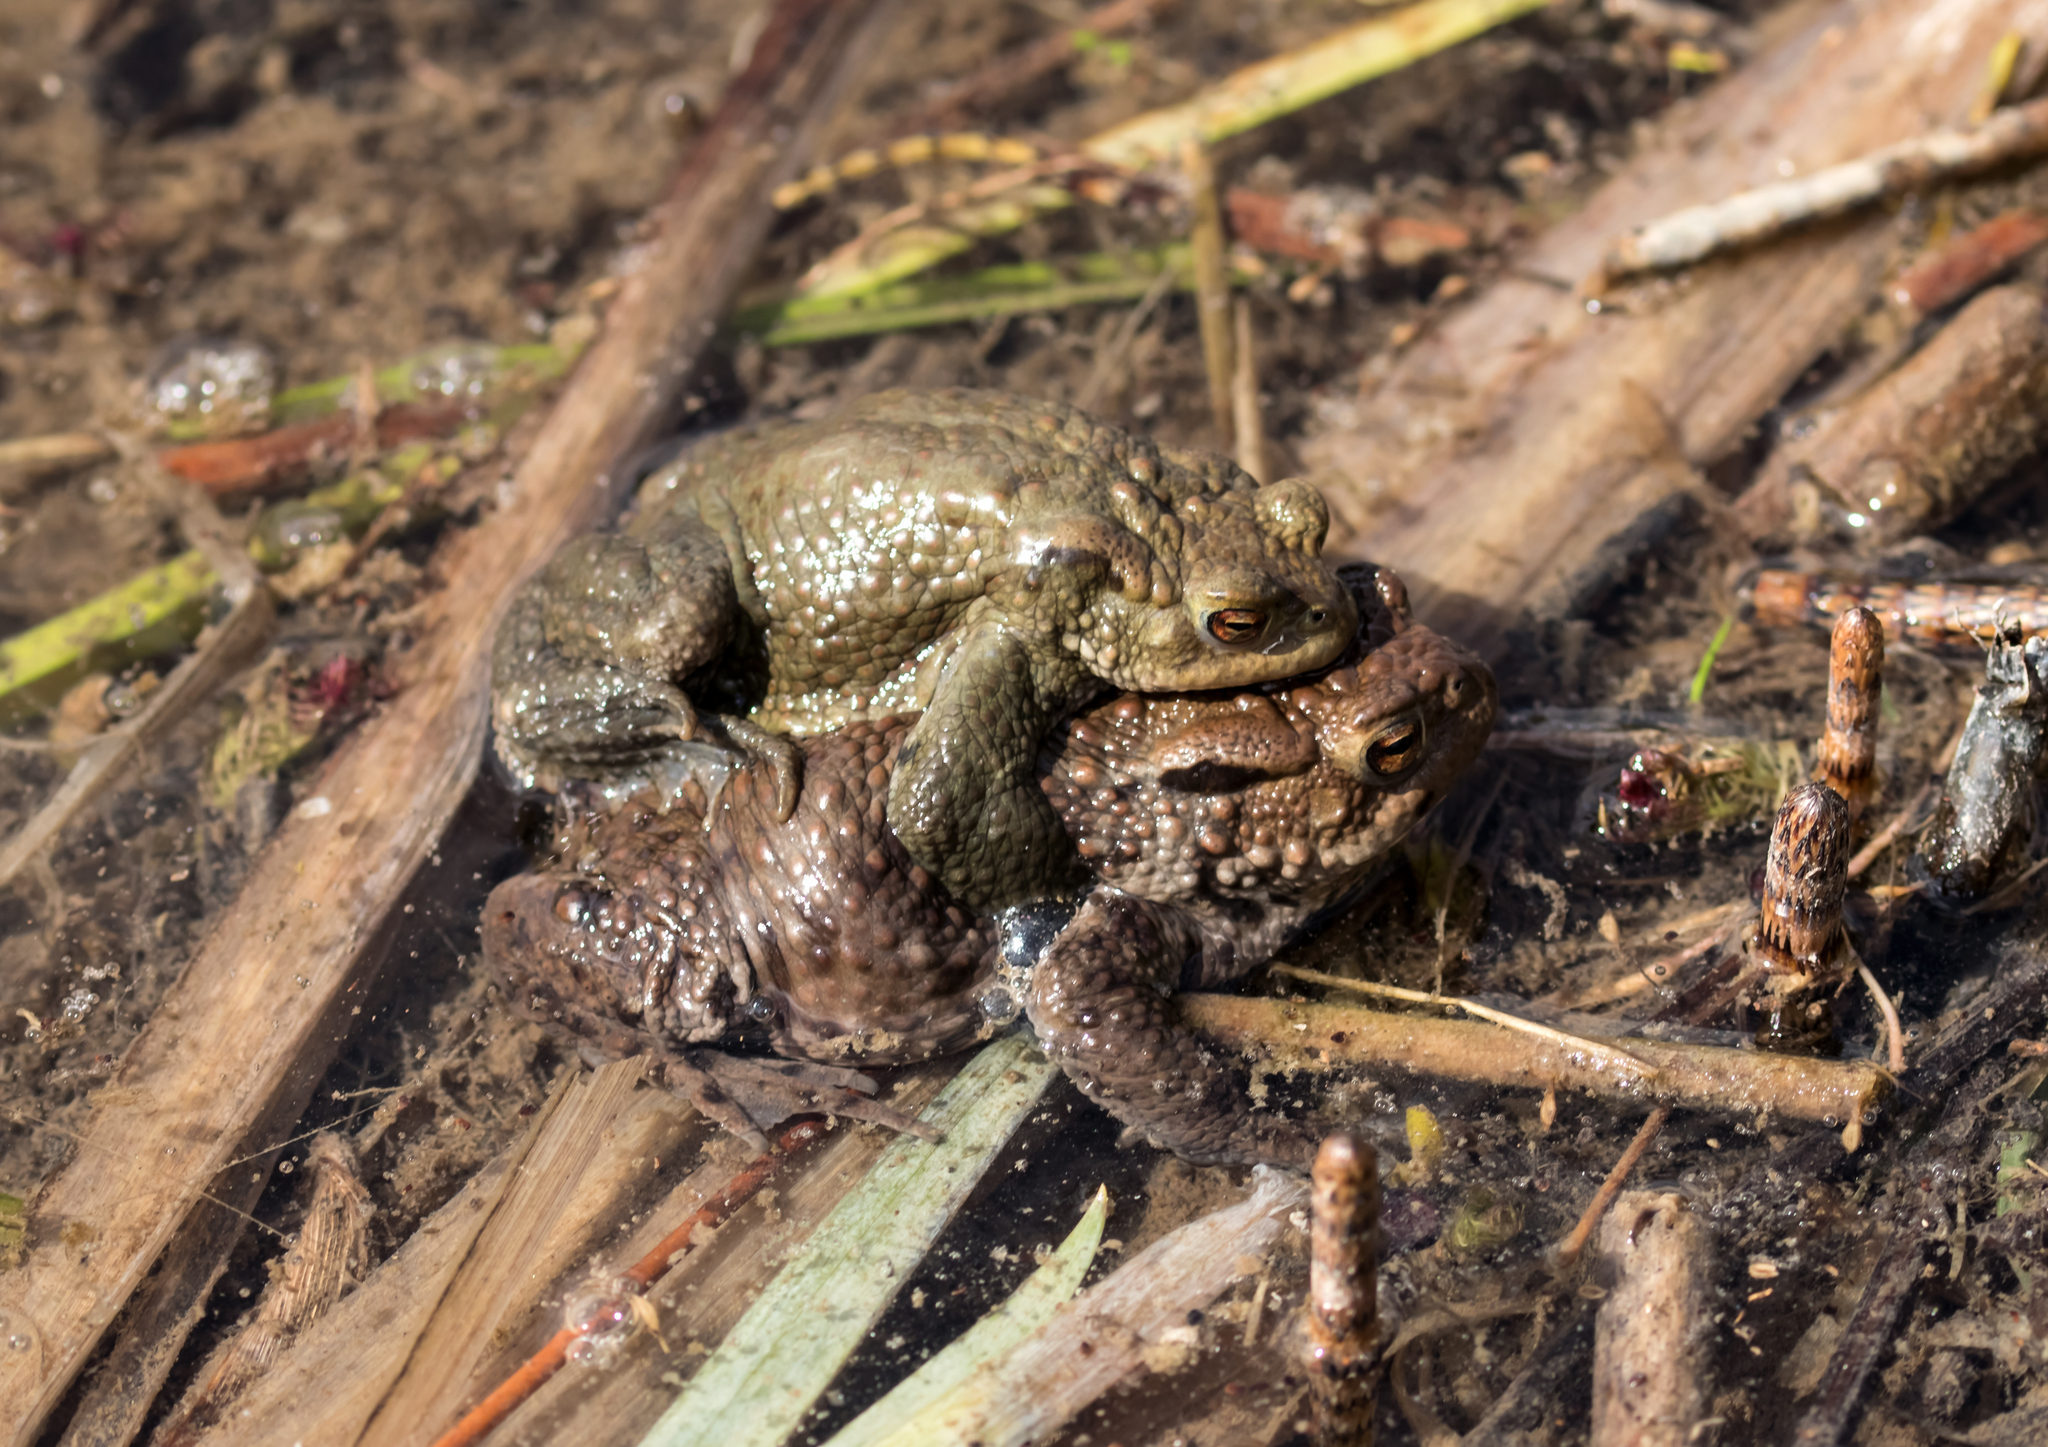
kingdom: Animalia
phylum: Chordata
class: Amphibia
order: Anura
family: Bufonidae
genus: Bufo
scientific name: Bufo bufo
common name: Common toad
